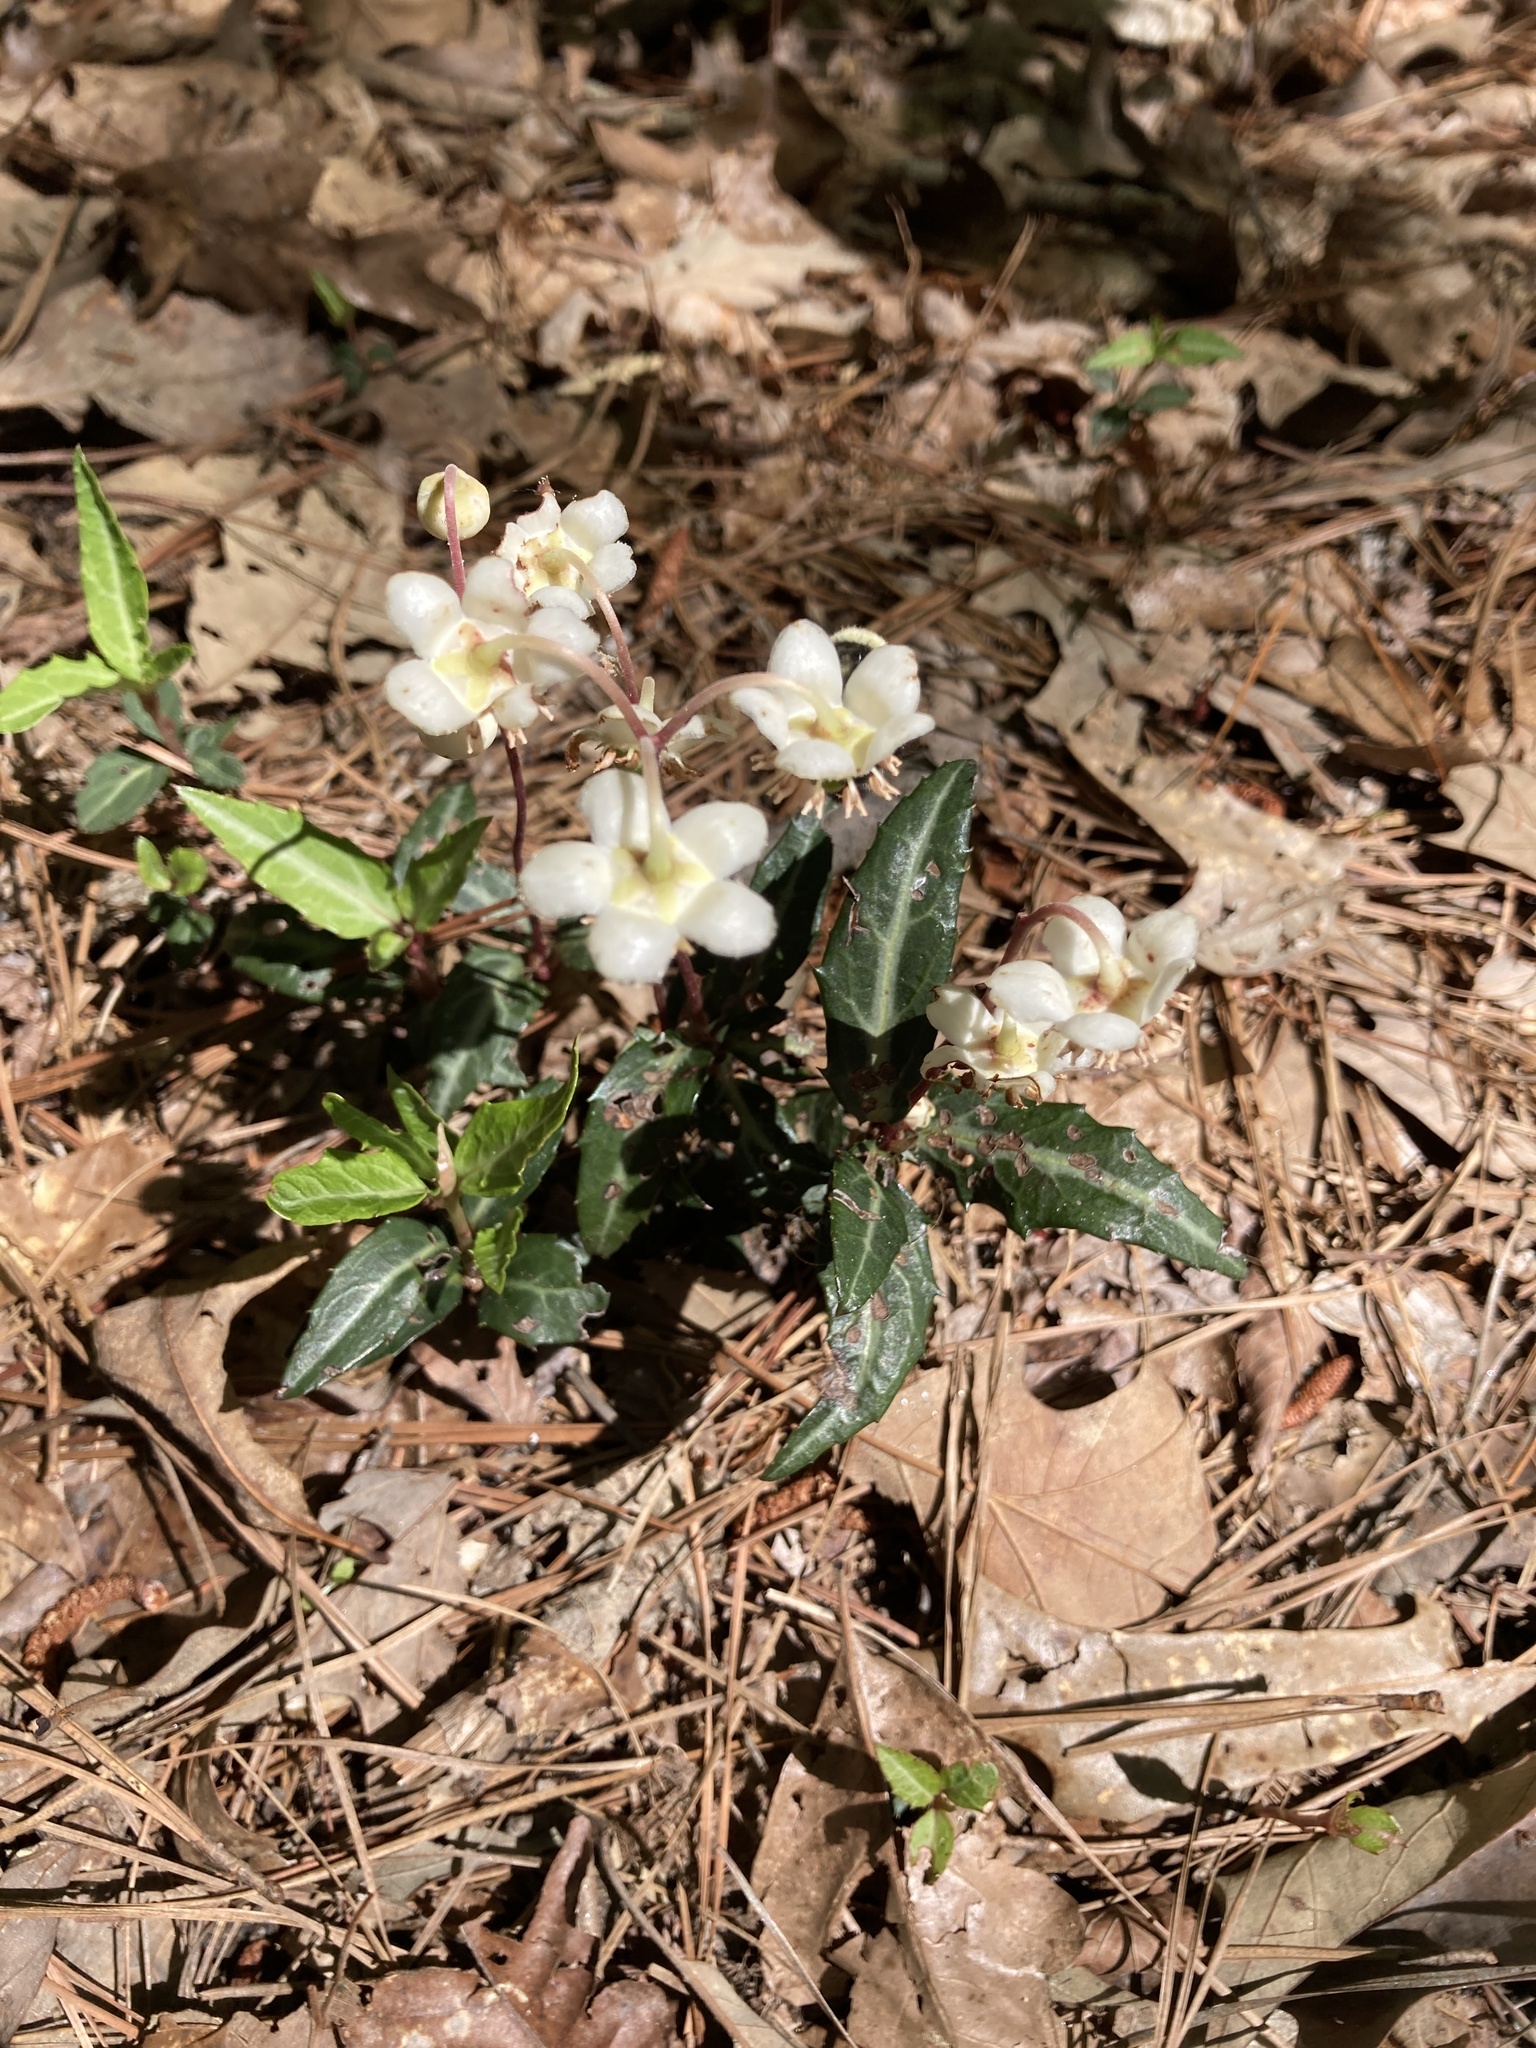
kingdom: Plantae
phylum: Tracheophyta
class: Magnoliopsida
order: Ericales
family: Ericaceae
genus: Chimaphila
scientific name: Chimaphila maculata
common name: Spotted pipsissewa
